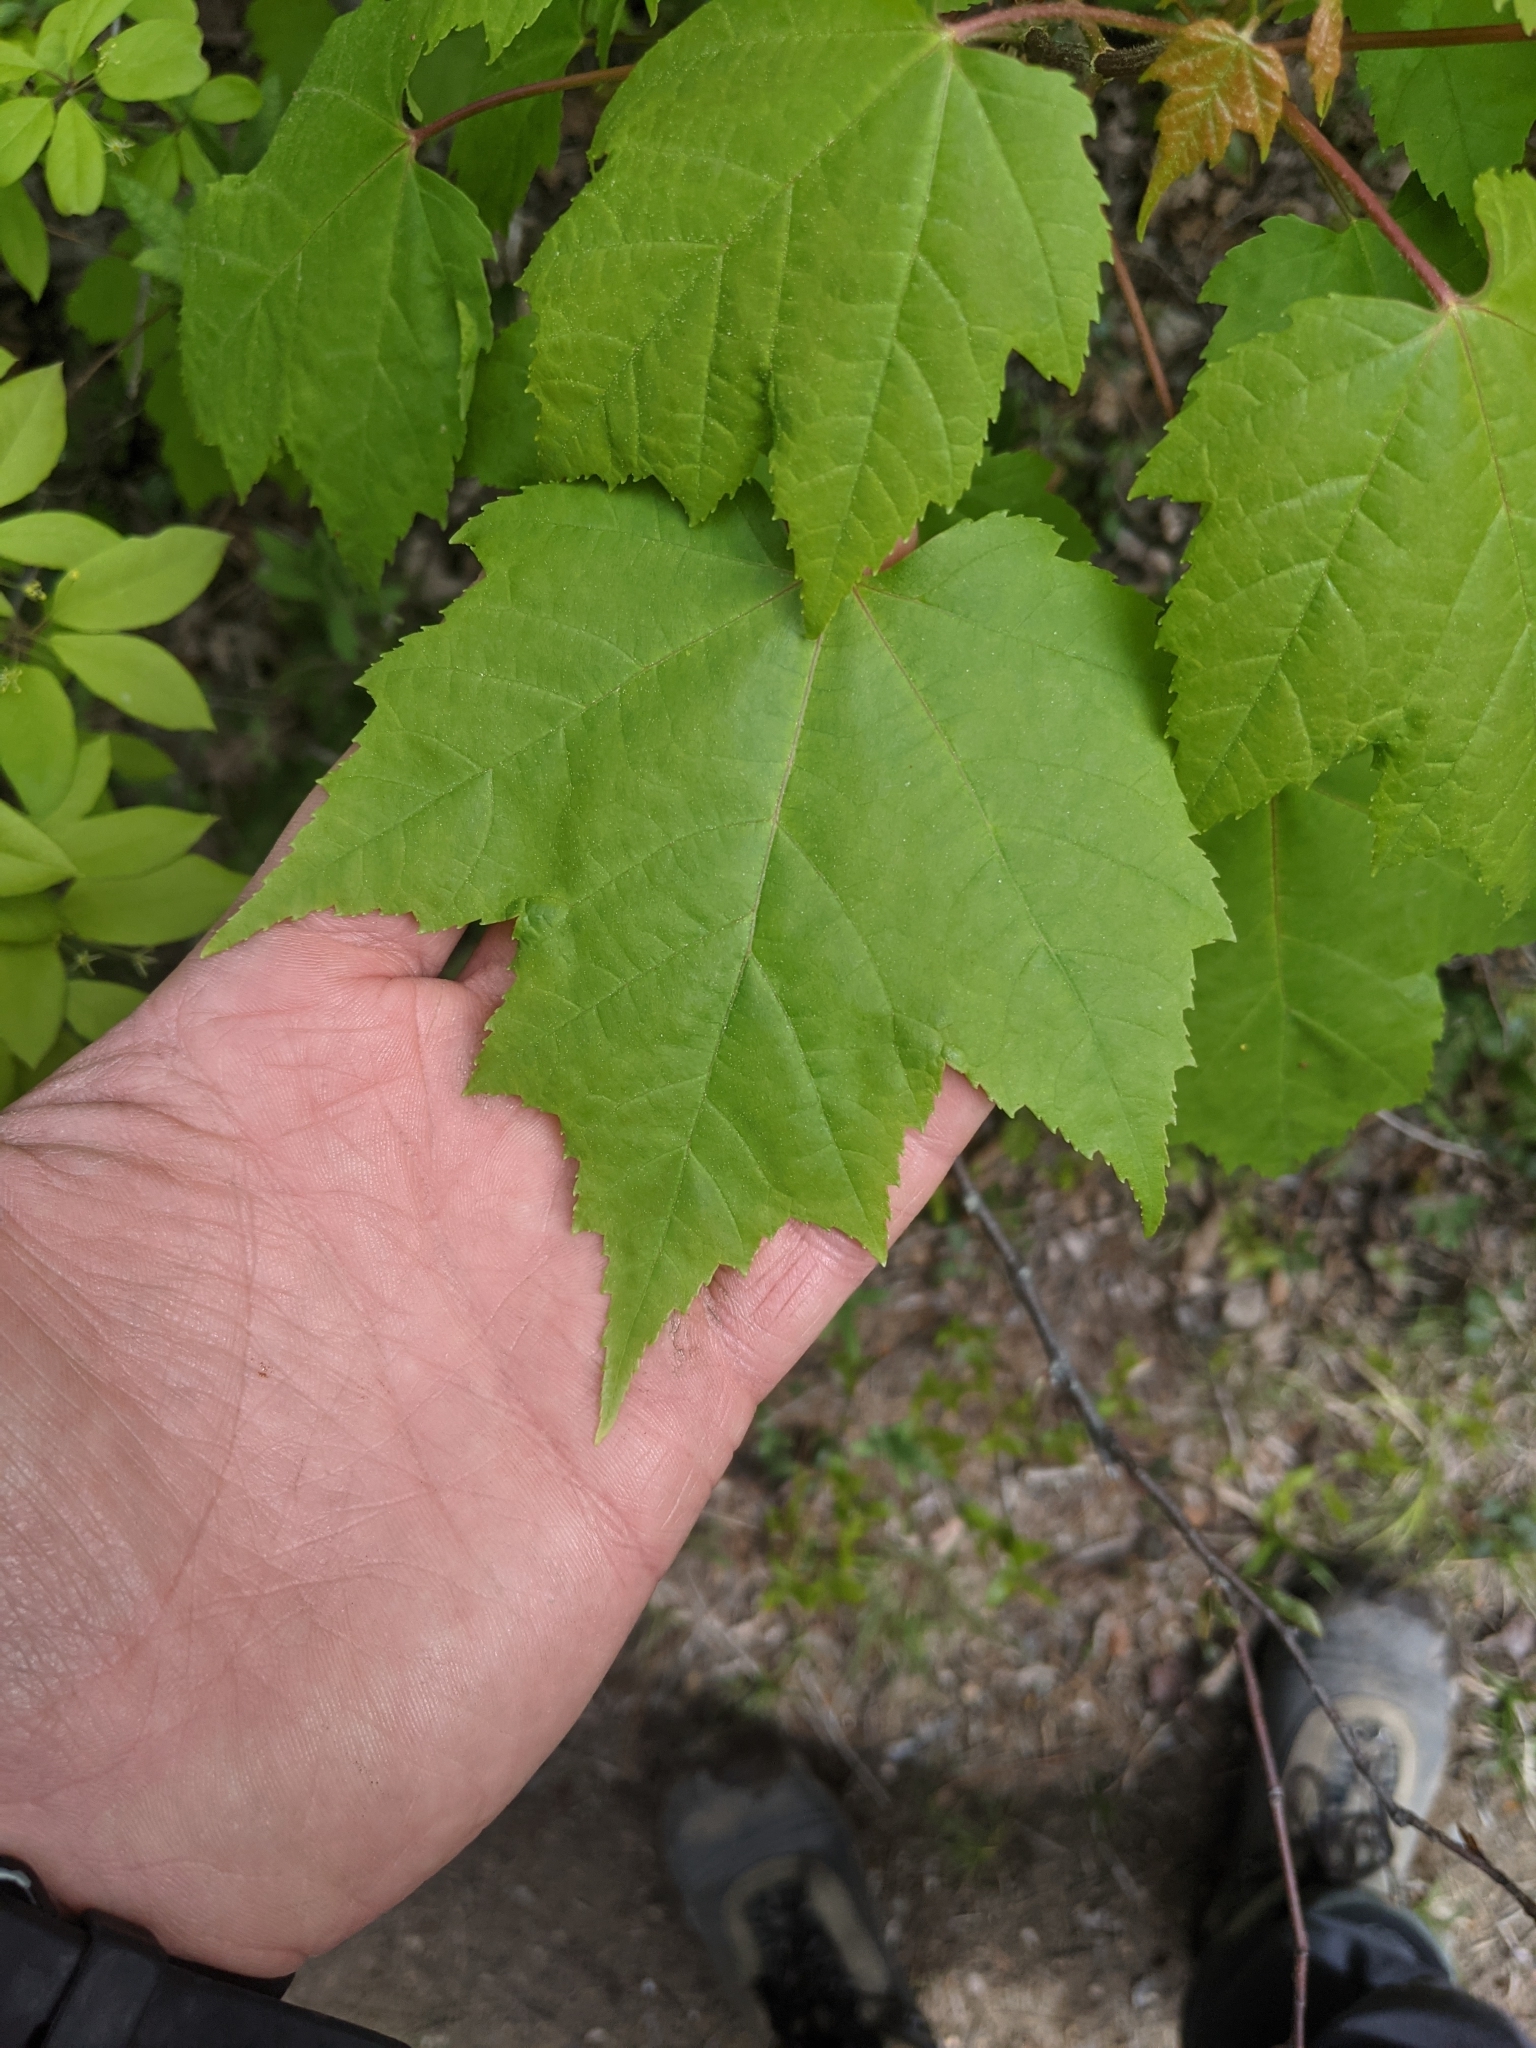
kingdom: Plantae
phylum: Tracheophyta
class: Magnoliopsida
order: Sapindales
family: Sapindaceae
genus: Acer
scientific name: Acer rubrum
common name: Red maple
